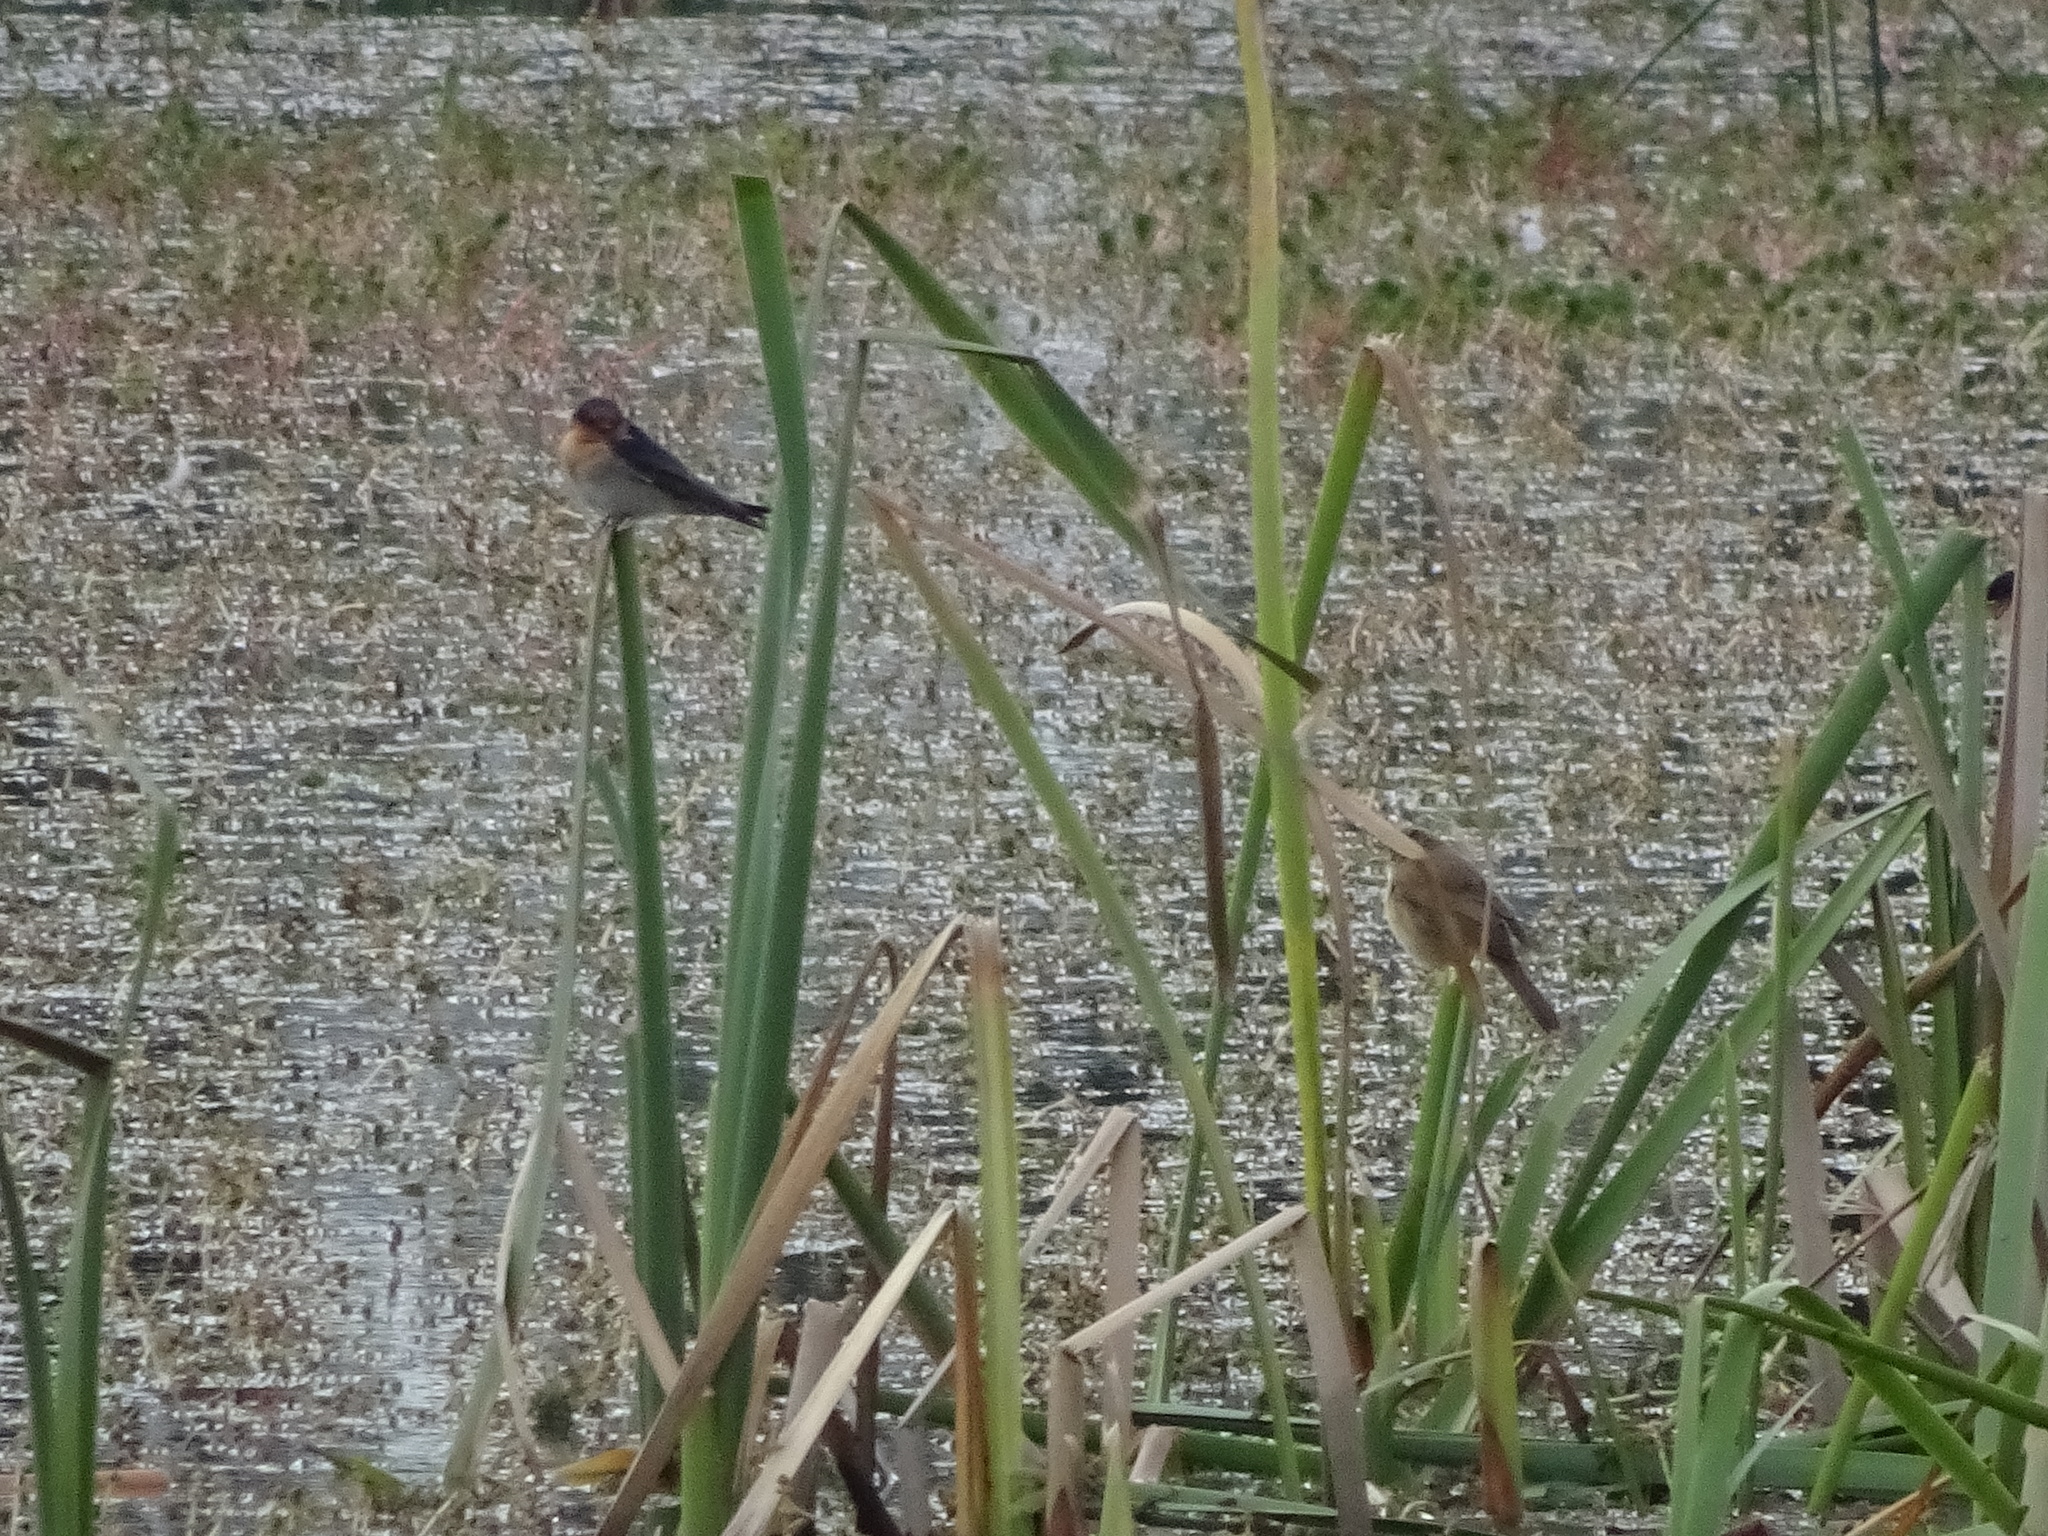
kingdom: Animalia
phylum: Chordata
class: Aves
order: Passeriformes
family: Hirundinidae
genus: Hirundo
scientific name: Hirundo neoxena
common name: Welcome swallow
